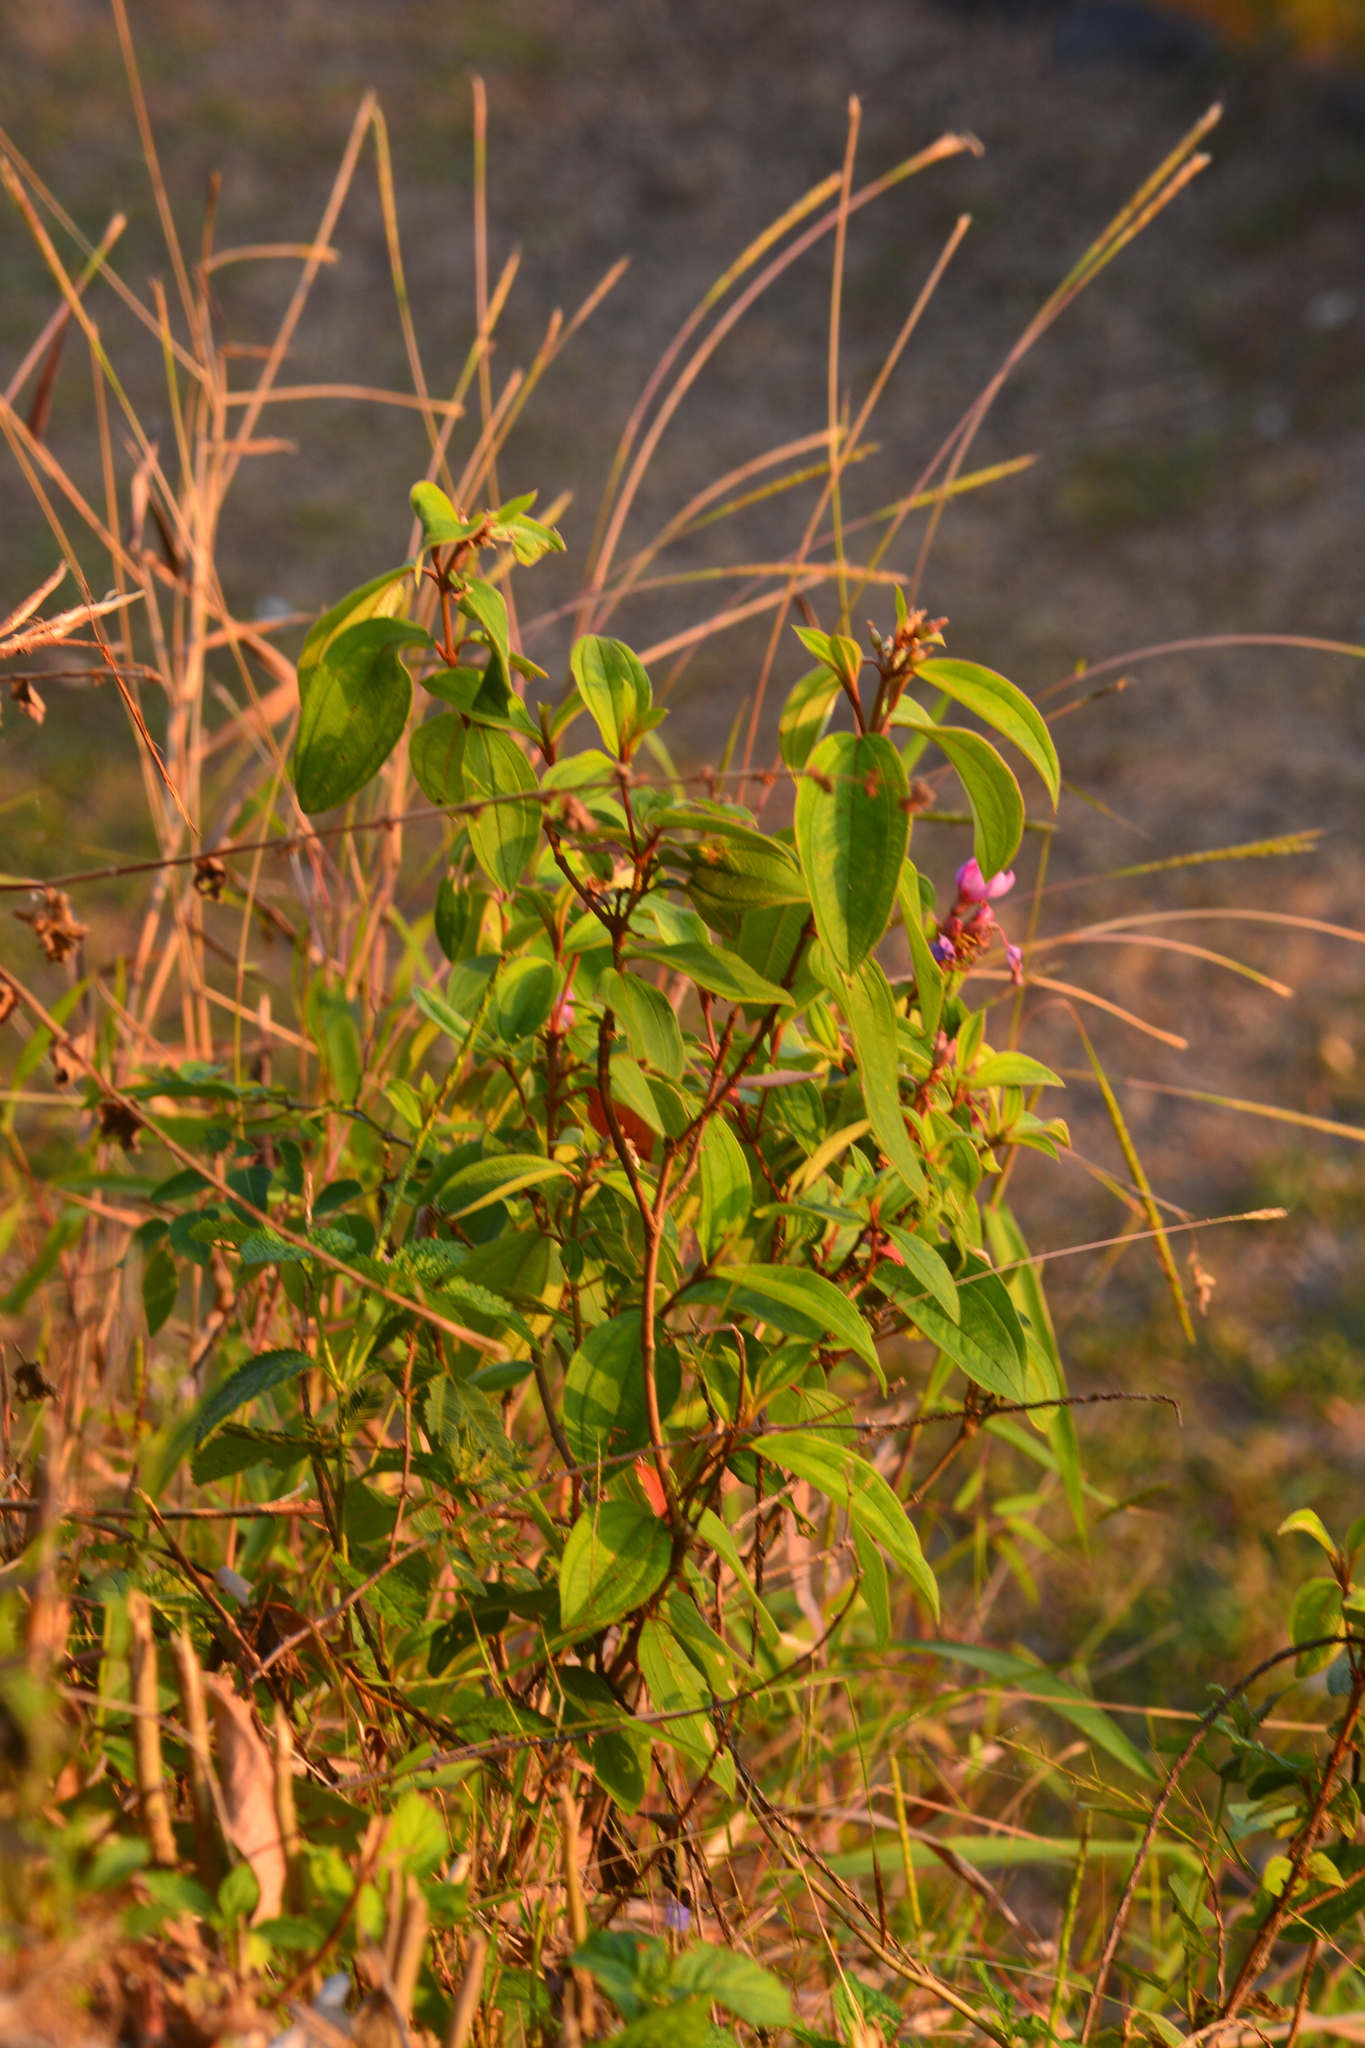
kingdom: Plantae
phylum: Tracheophyta
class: Magnoliopsida
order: Myrtales
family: Melastomataceae
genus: Melastoma
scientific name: Melastoma malabathricum
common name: Indian-rhododendron
